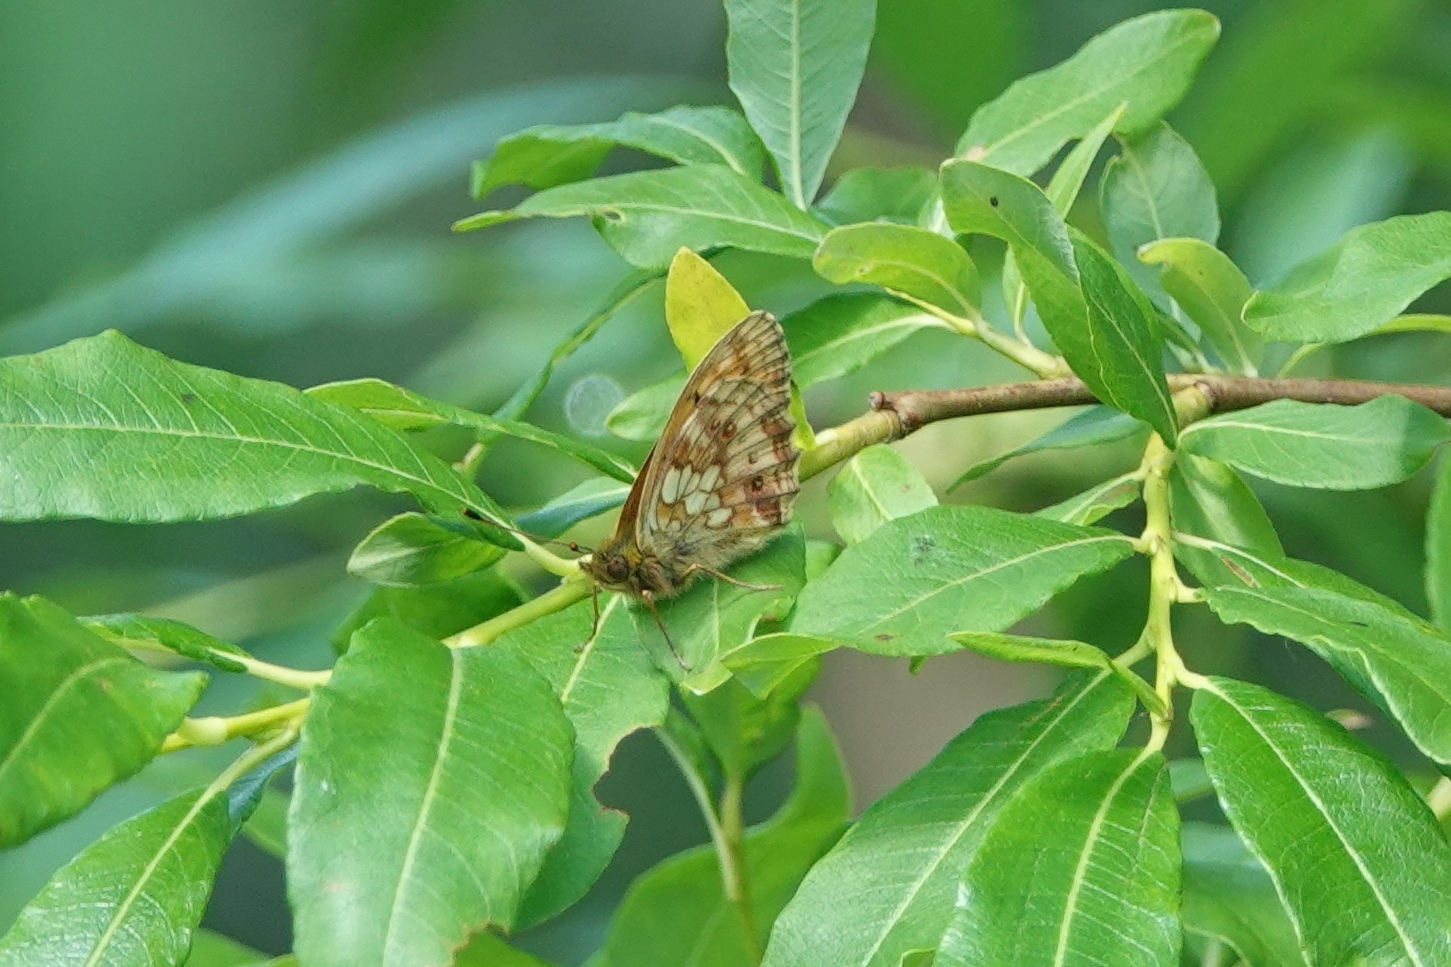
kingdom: Animalia
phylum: Arthropoda
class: Insecta
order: Lepidoptera
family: Nymphalidae
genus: Brenthis
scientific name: Brenthis ino
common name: Lesser marbled fritillary
